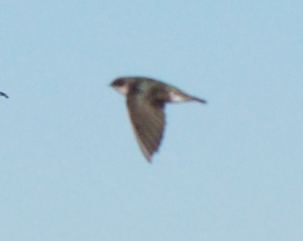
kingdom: Animalia
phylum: Chordata
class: Aves
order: Passeriformes
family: Hirundinidae
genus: Tachycineta
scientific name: Tachycineta bicolor
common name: Tree swallow
